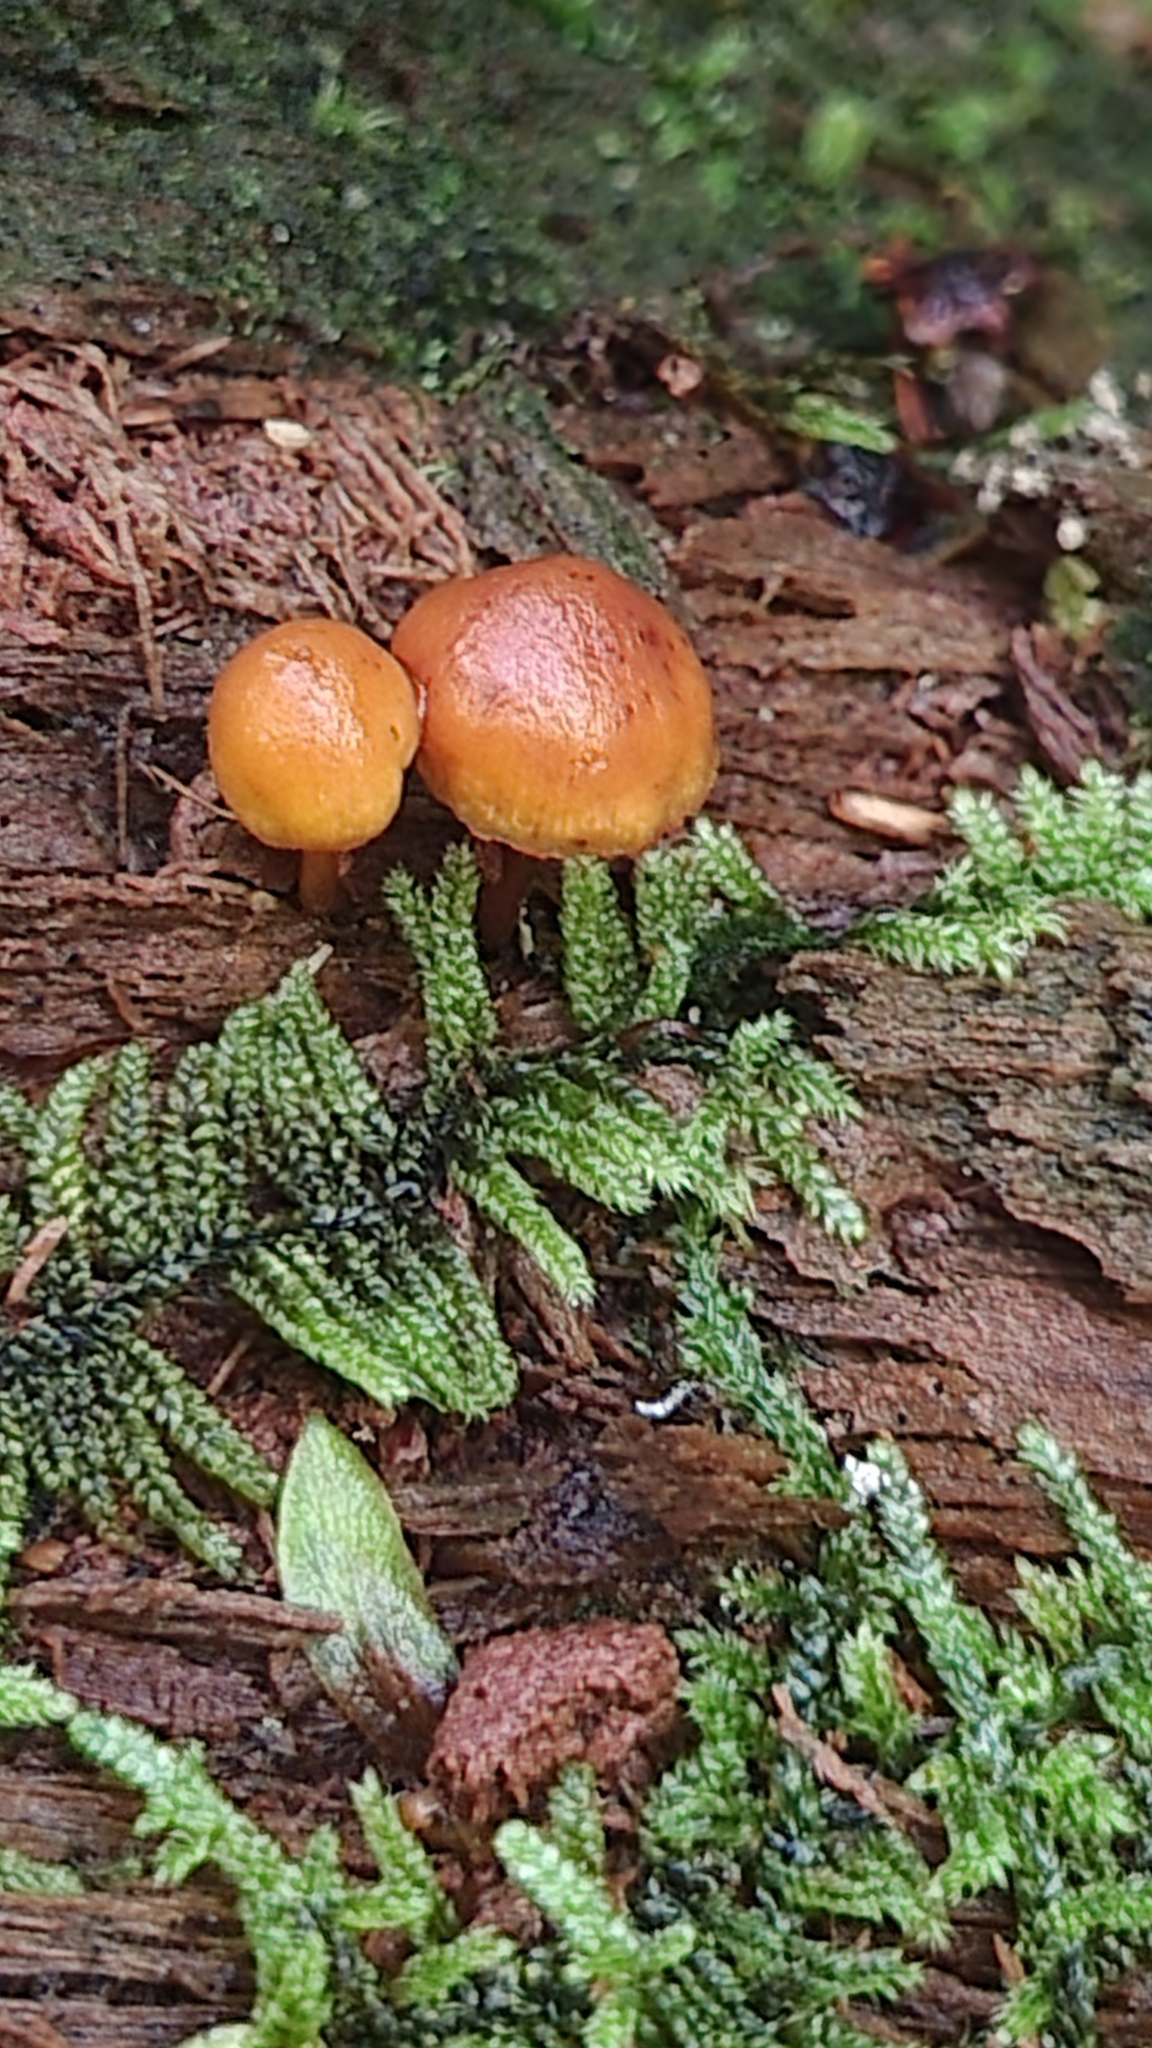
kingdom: Fungi
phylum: Basidiomycota
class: Agaricomycetes
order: Agaricales
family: Hymenogastraceae
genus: Galerina
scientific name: Galerina marginata
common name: Funeral bell
